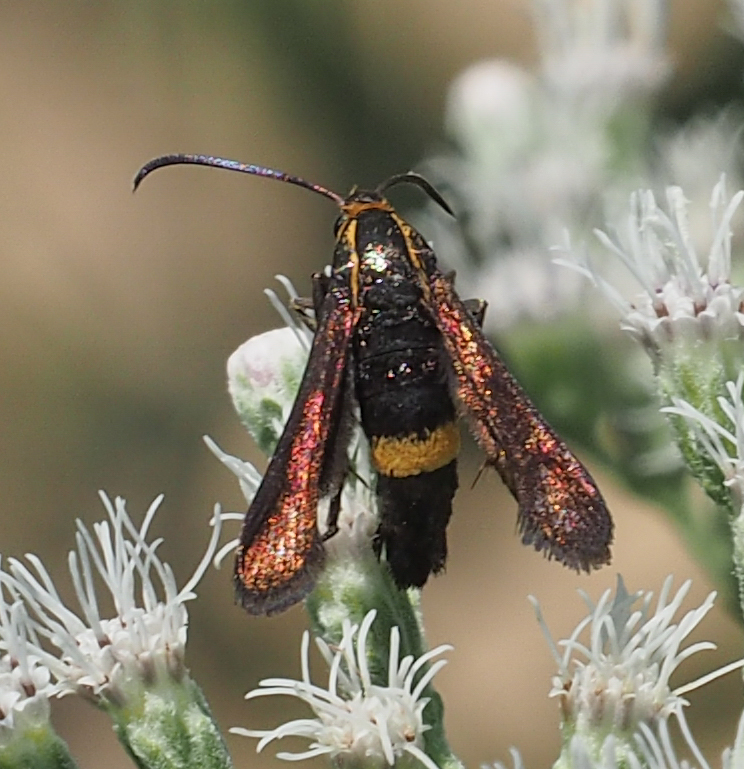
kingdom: Animalia
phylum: Arthropoda
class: Insecta
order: Lepidoptera
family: Sesiidae
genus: Carmenta
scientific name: Carmenta pyralidiformis
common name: Boneset borer moth
